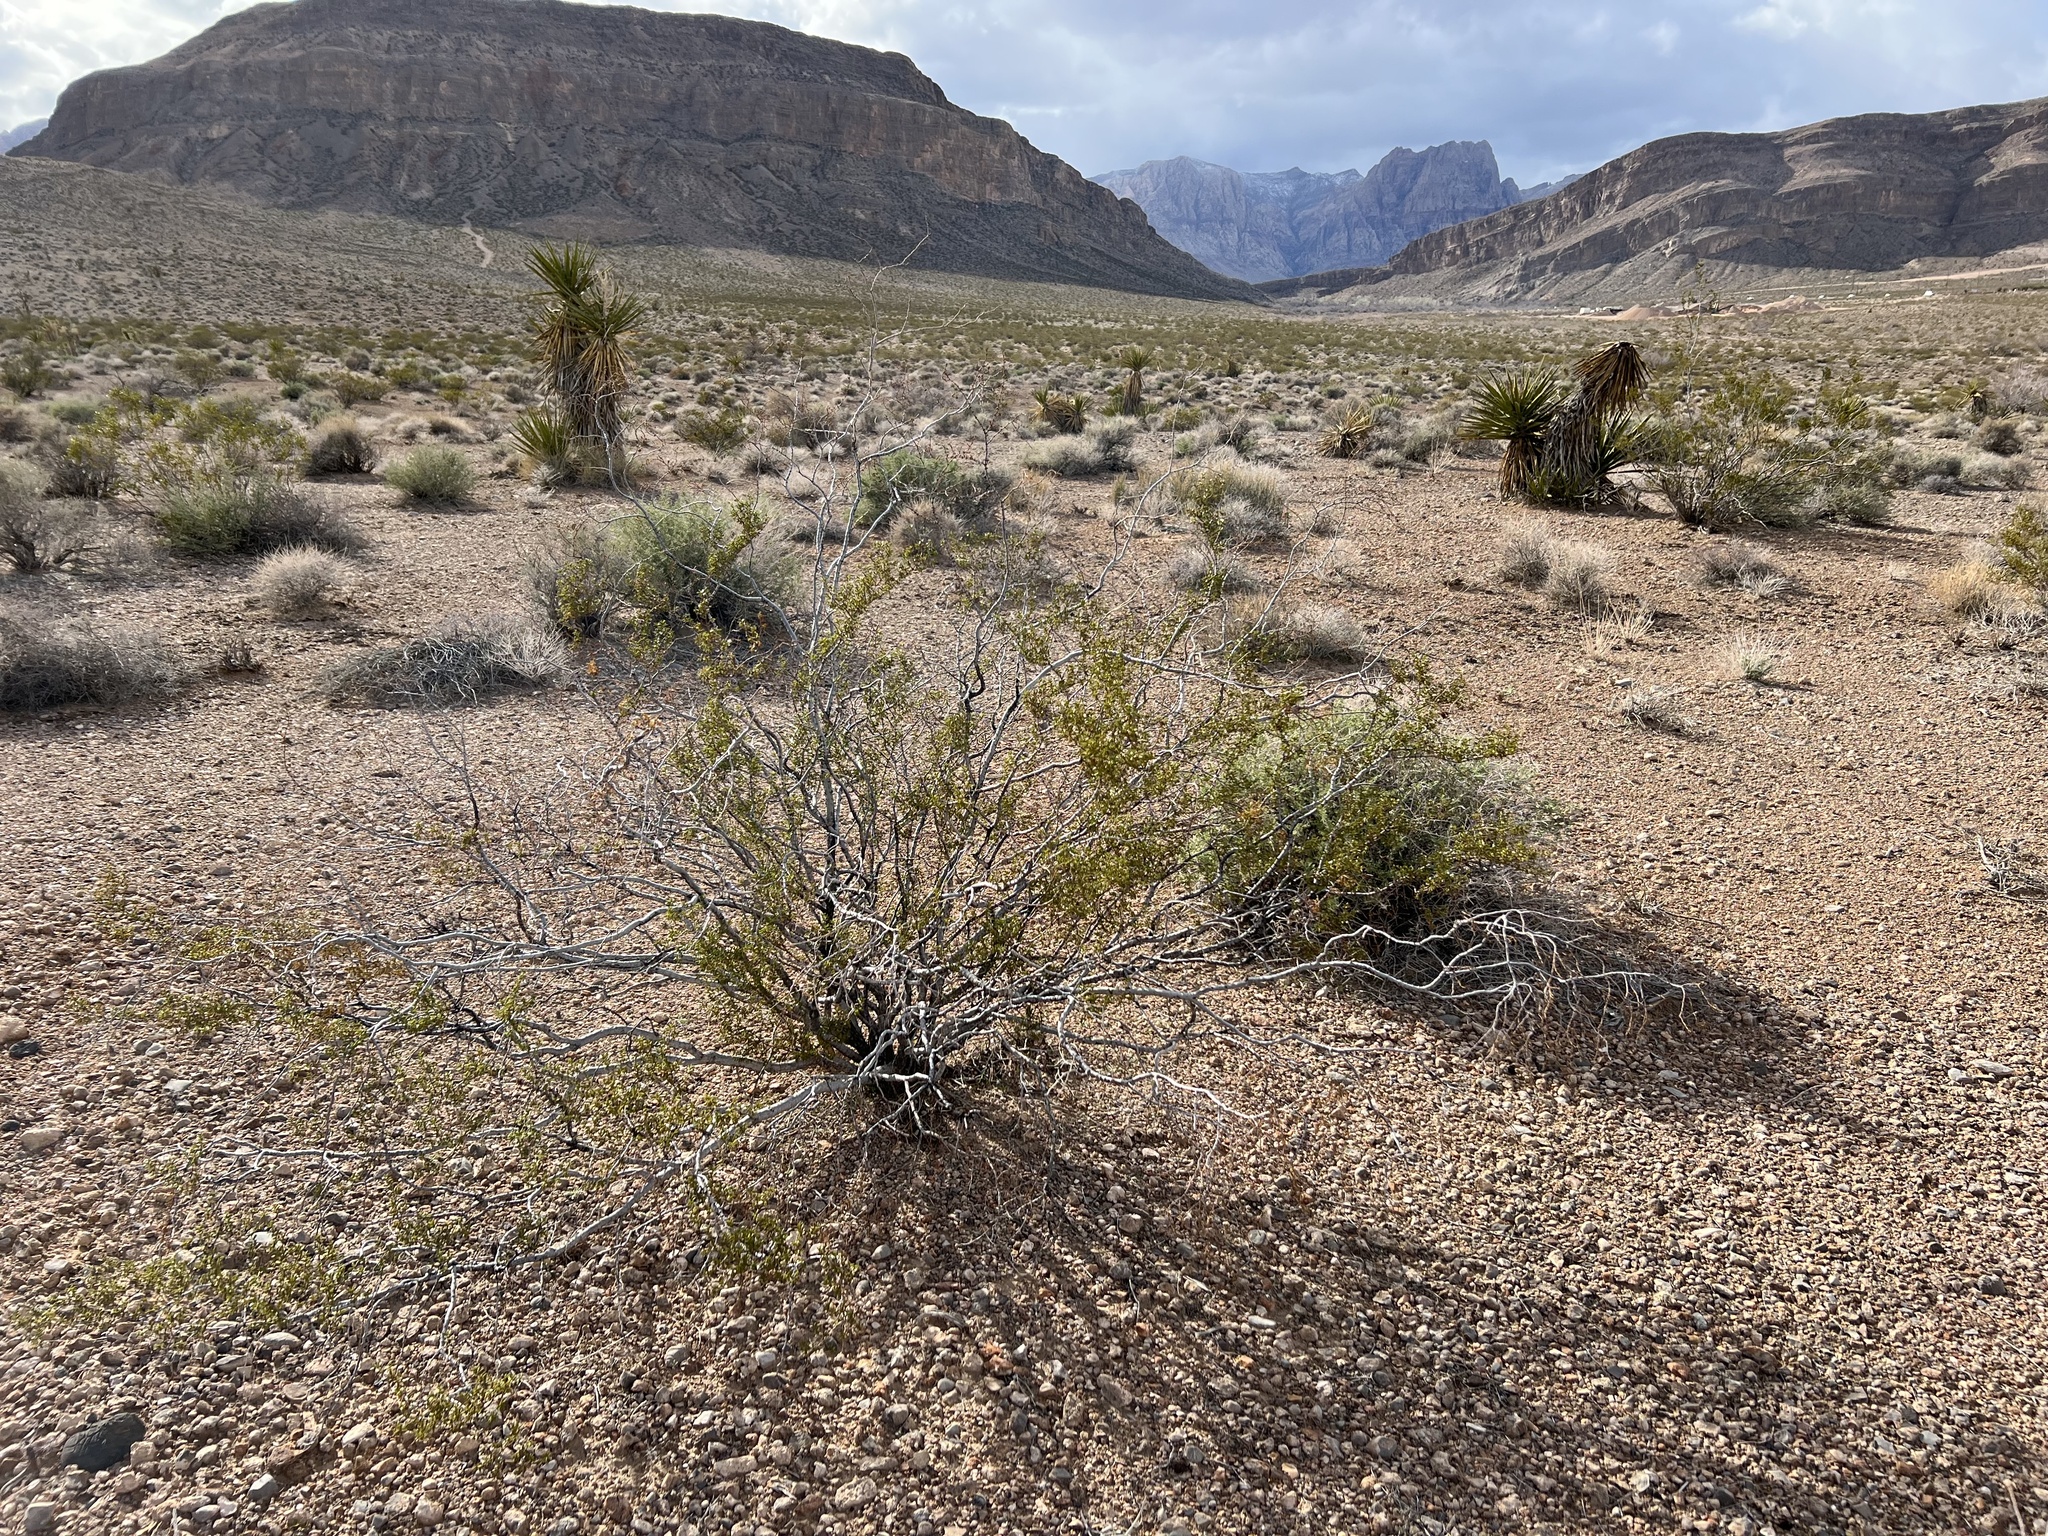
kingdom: Plantae
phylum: Tracheophyta
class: Magnoliopsida
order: Zygophyllales
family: Zygophyllaceae
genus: Larrea
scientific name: Larrea tridentata
